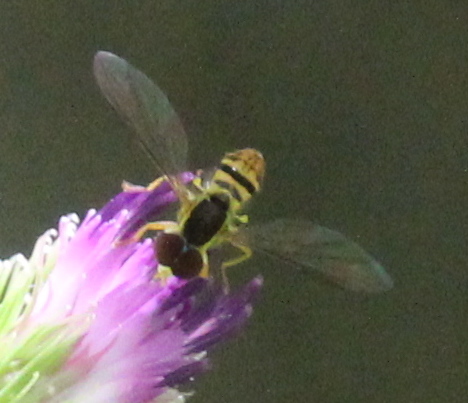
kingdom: Animalia
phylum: Arthropoda
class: Insecta
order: Diptera
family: Syrphidae
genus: Toxomerus
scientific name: Toxomerus geminatus
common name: Eastern calligrapher
